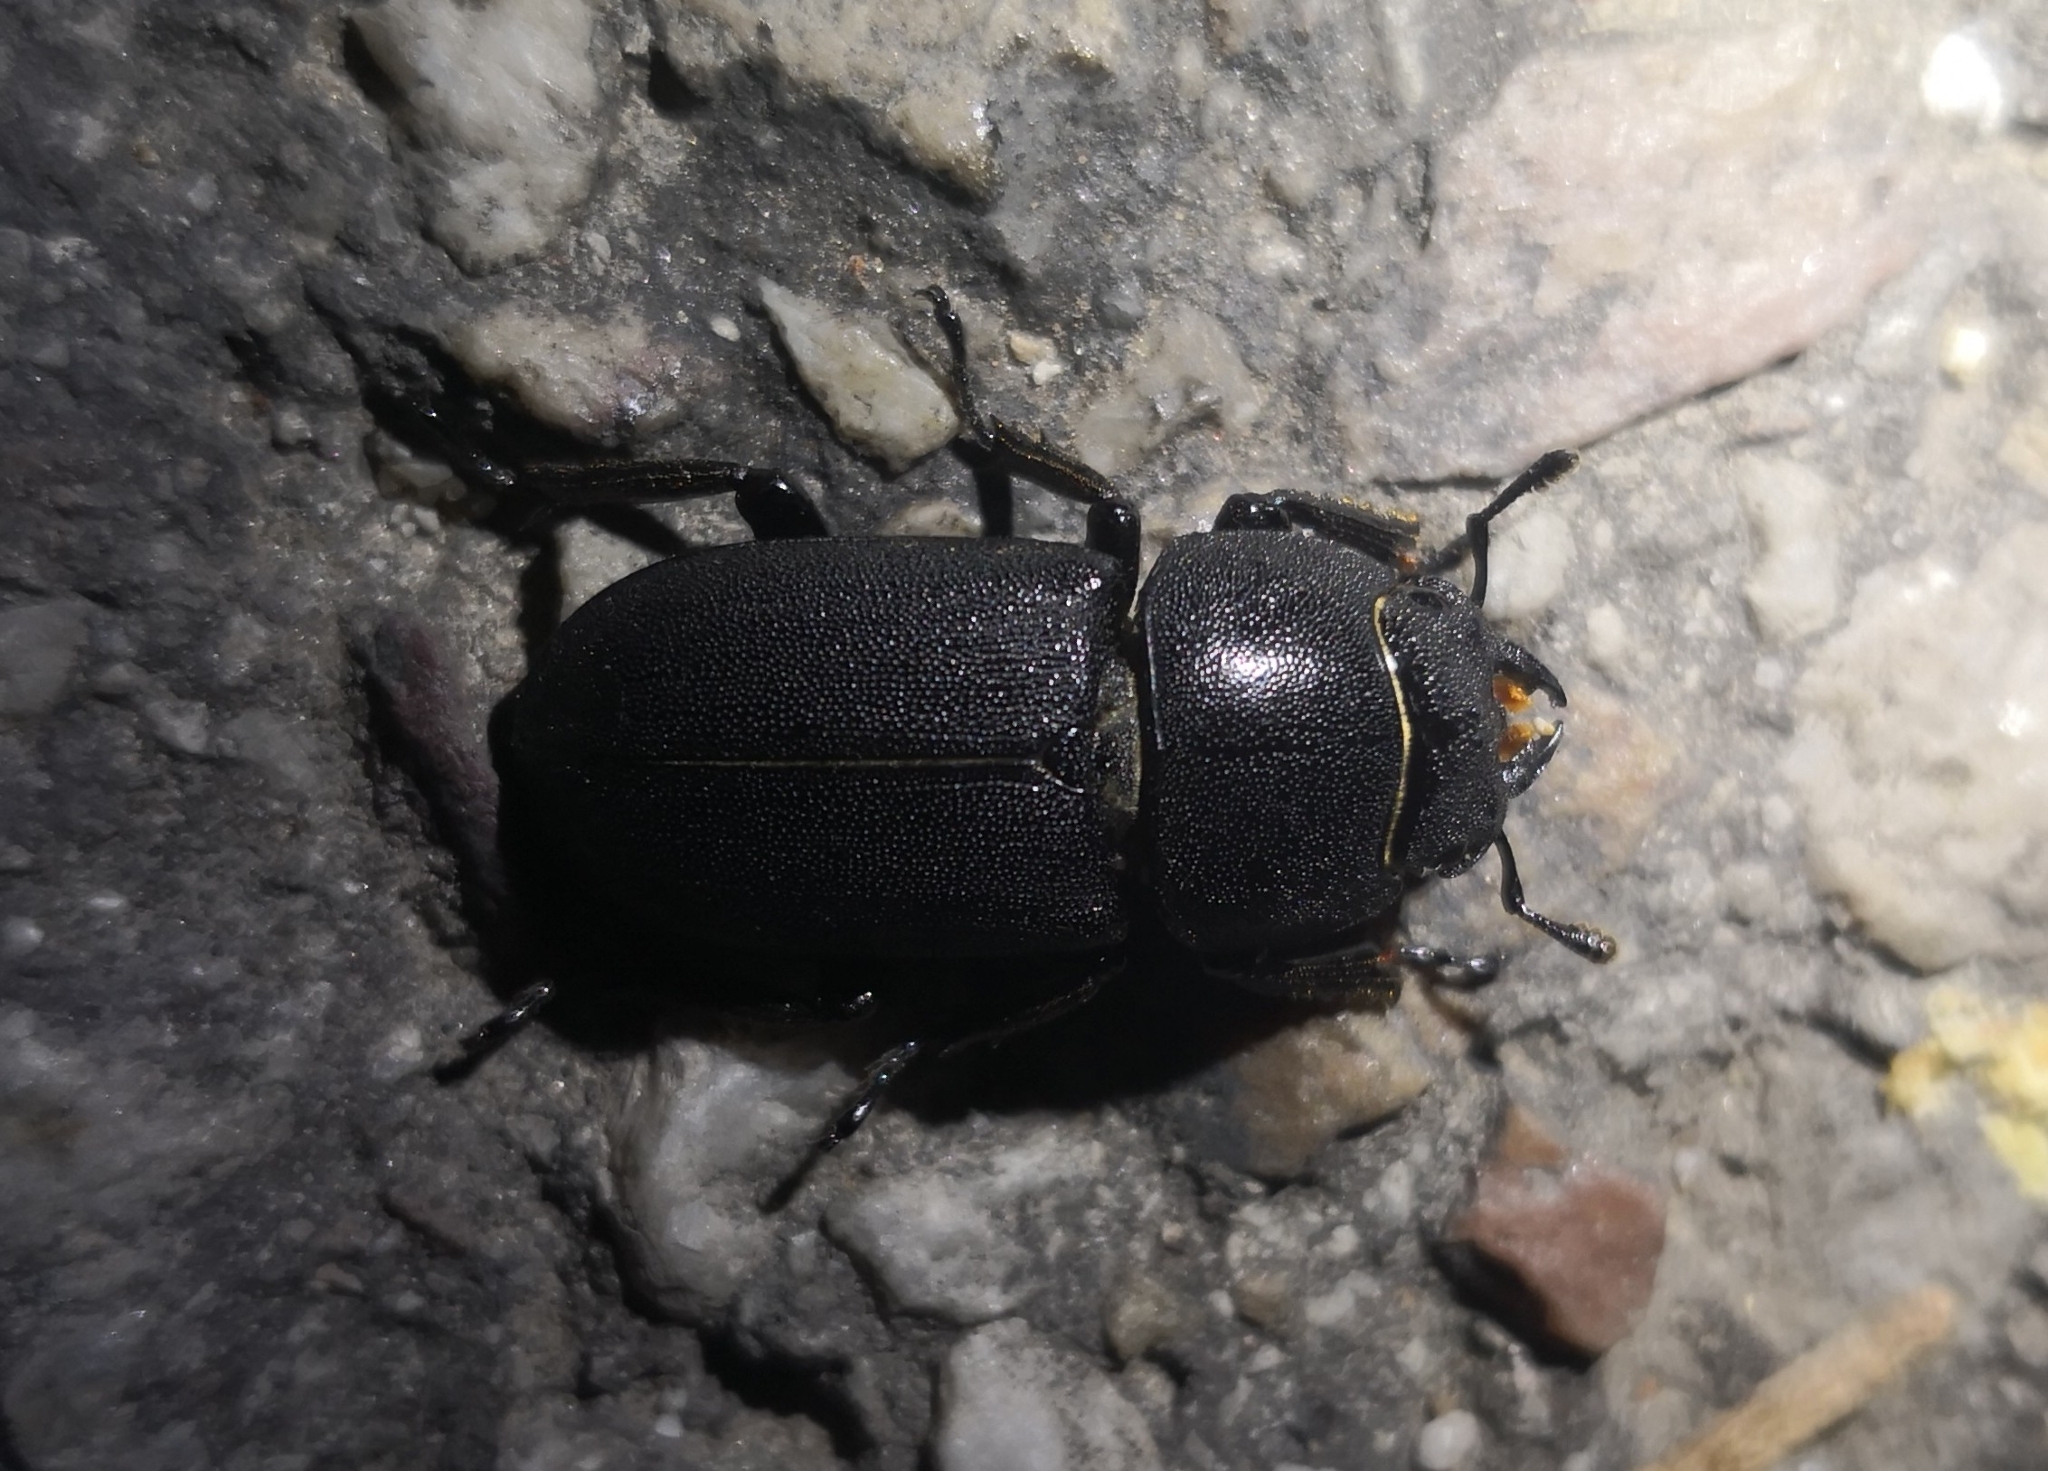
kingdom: Animalia
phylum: Arthropoda
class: Insecta
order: Coleoptera
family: Lucanidae
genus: Dorcus
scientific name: Dorcus parallelipipedus
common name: Lesser stag beetle
